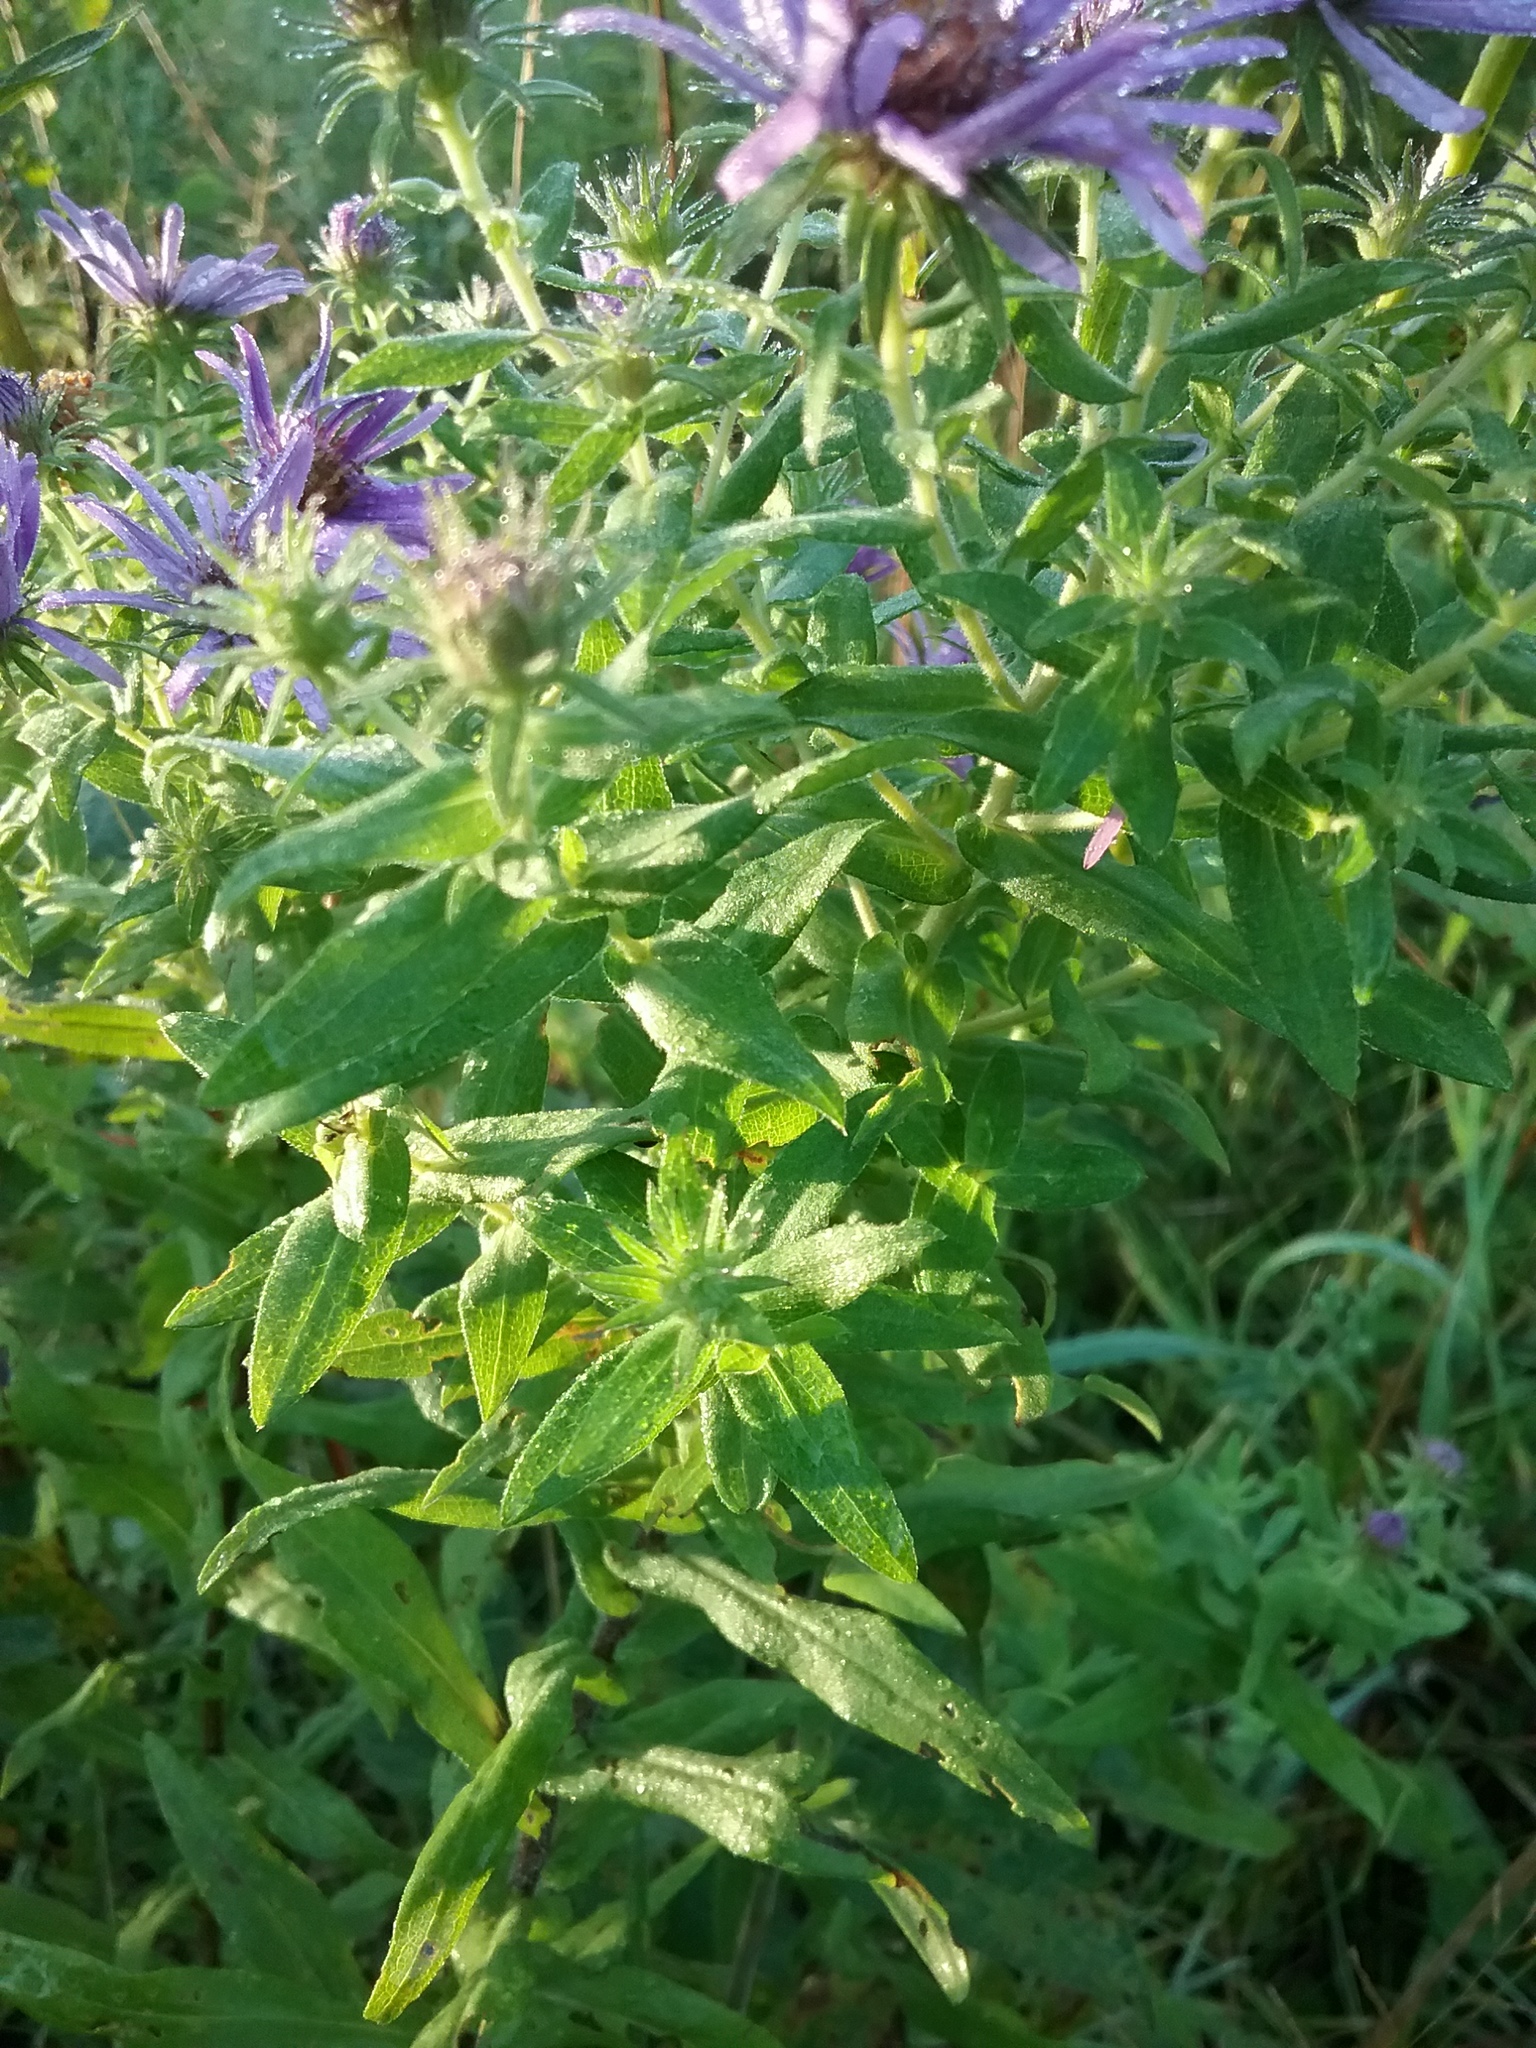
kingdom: Plantae
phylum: Tracheophyta
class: Magnoliopsida
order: Asterales
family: Asteraceae
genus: Symphyotrichum
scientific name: Symphyotrichum novae-angliae
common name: Michaelmas daisy
